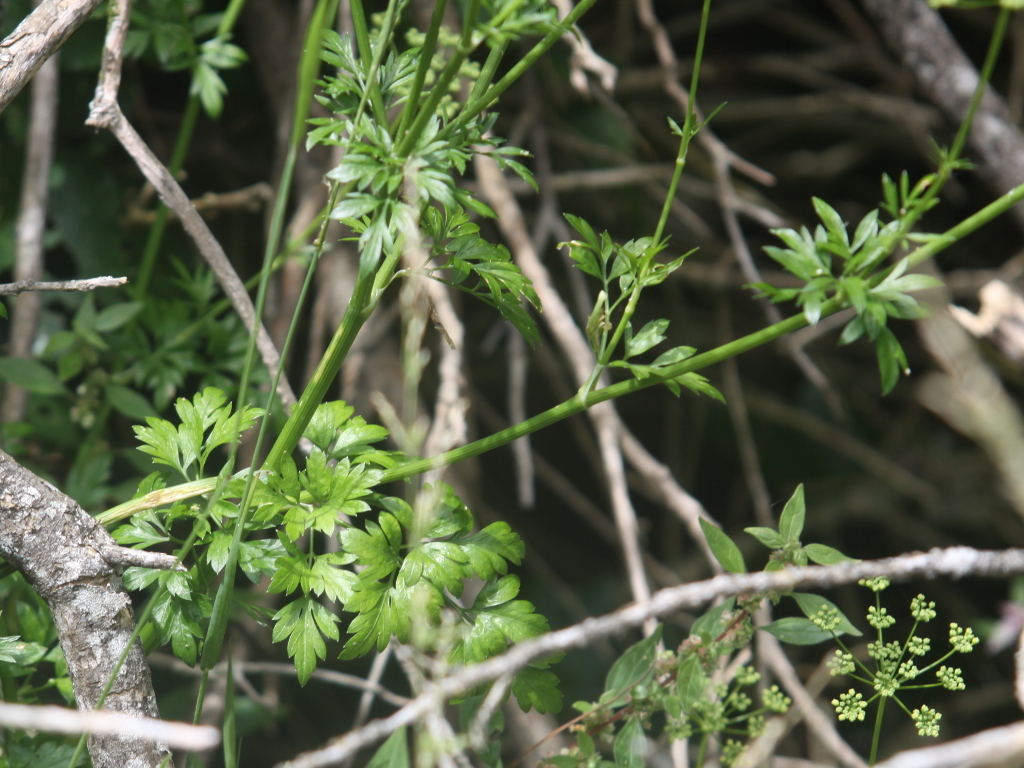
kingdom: Plantae
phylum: Tracheophyta
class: Magnoliopsida
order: Apiales
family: Apiaceae
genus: Petroselinum
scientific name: Petroselinum crispum
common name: Parsley
